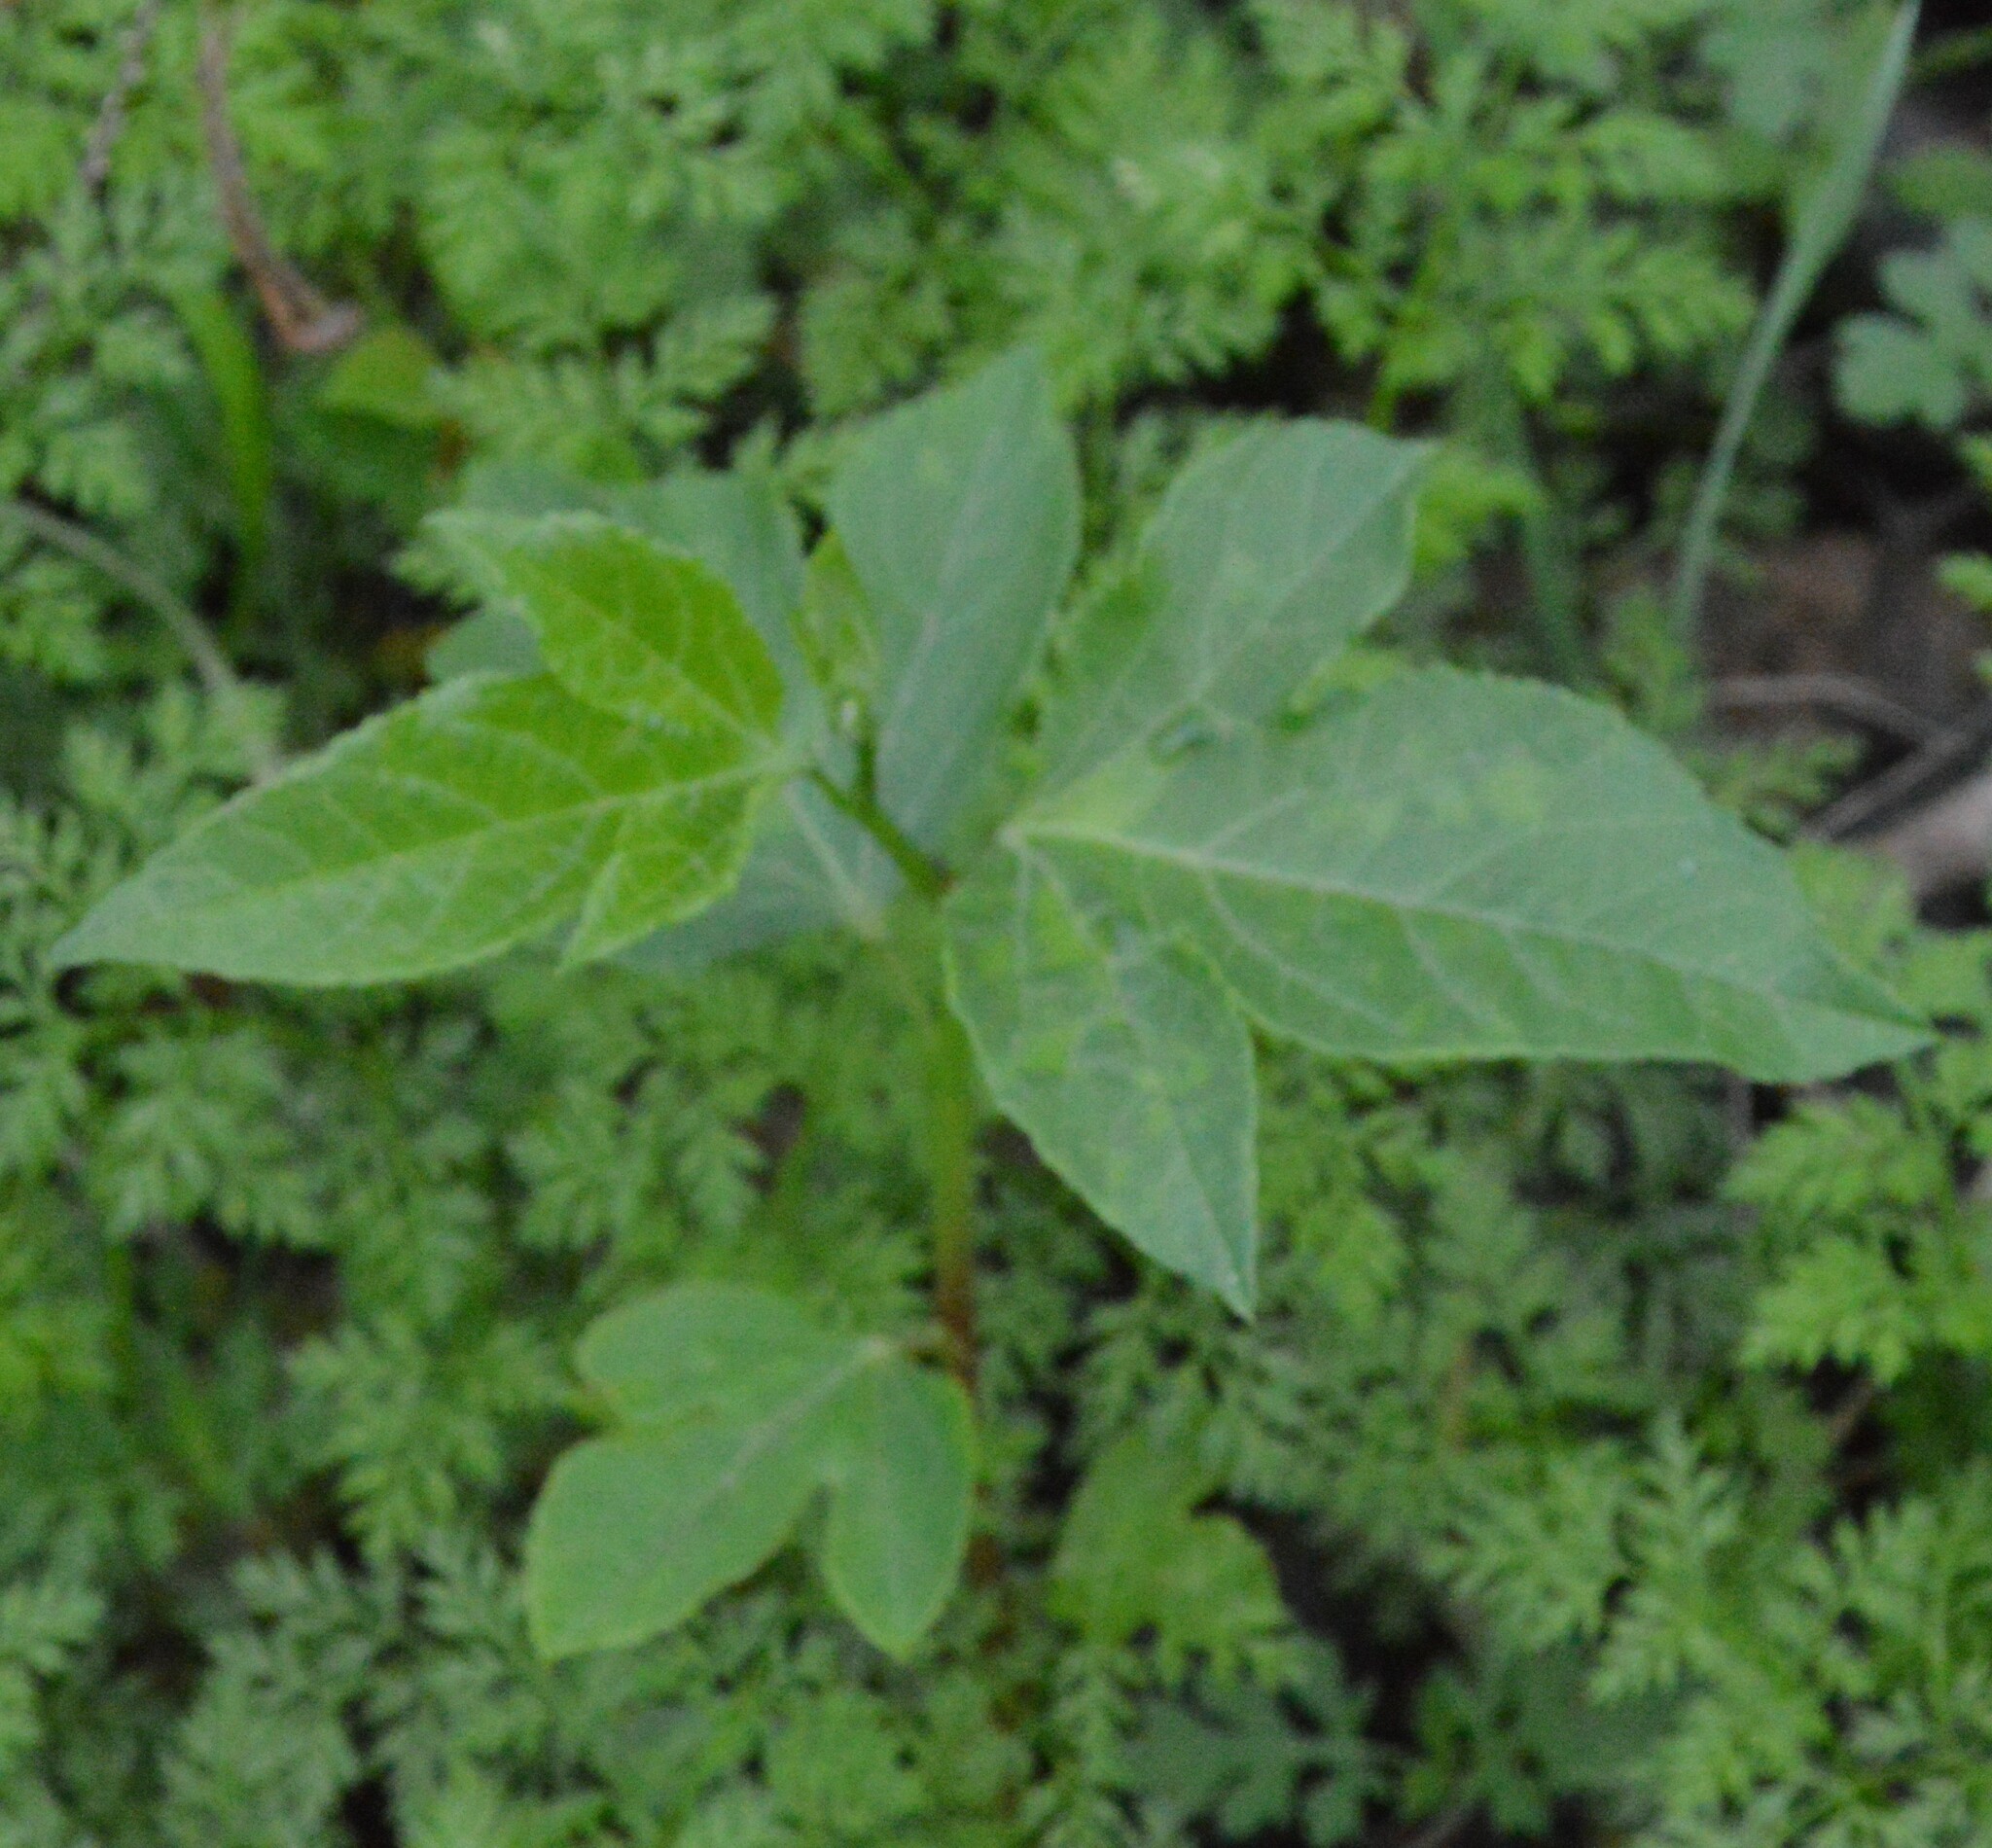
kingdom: Plantae
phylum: Tracheophyta
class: Magnoliopsida
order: Malpighiales
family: Passifloraceae
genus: Passiflora
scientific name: Passiflora incarnata
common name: Apricot-vine
